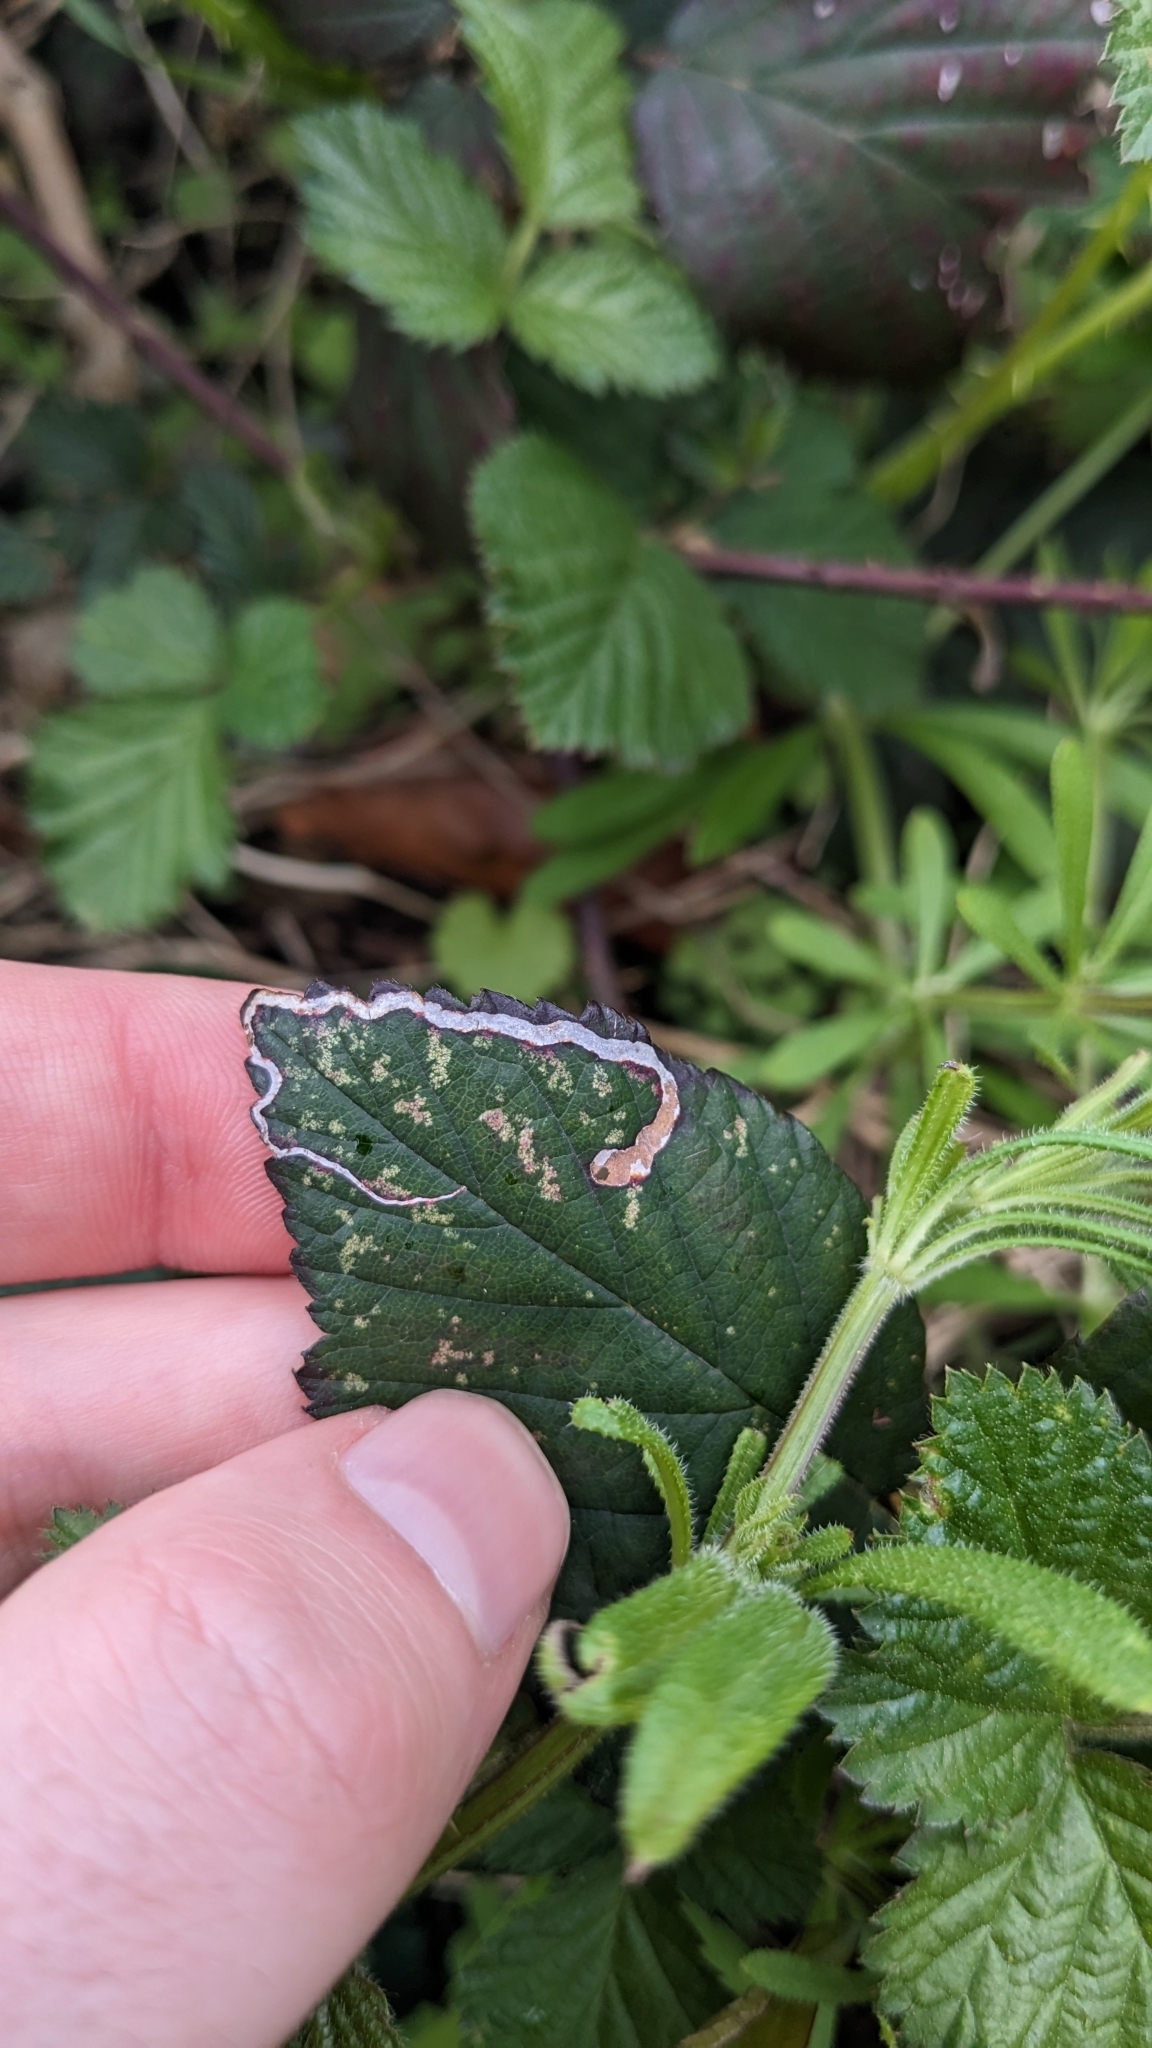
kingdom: Animalia
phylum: Arthropoda
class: Insecta
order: Lepidoptera
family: Nepticulidae
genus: Stigmella
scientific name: Stigmella aurella
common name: Golden pigmy
